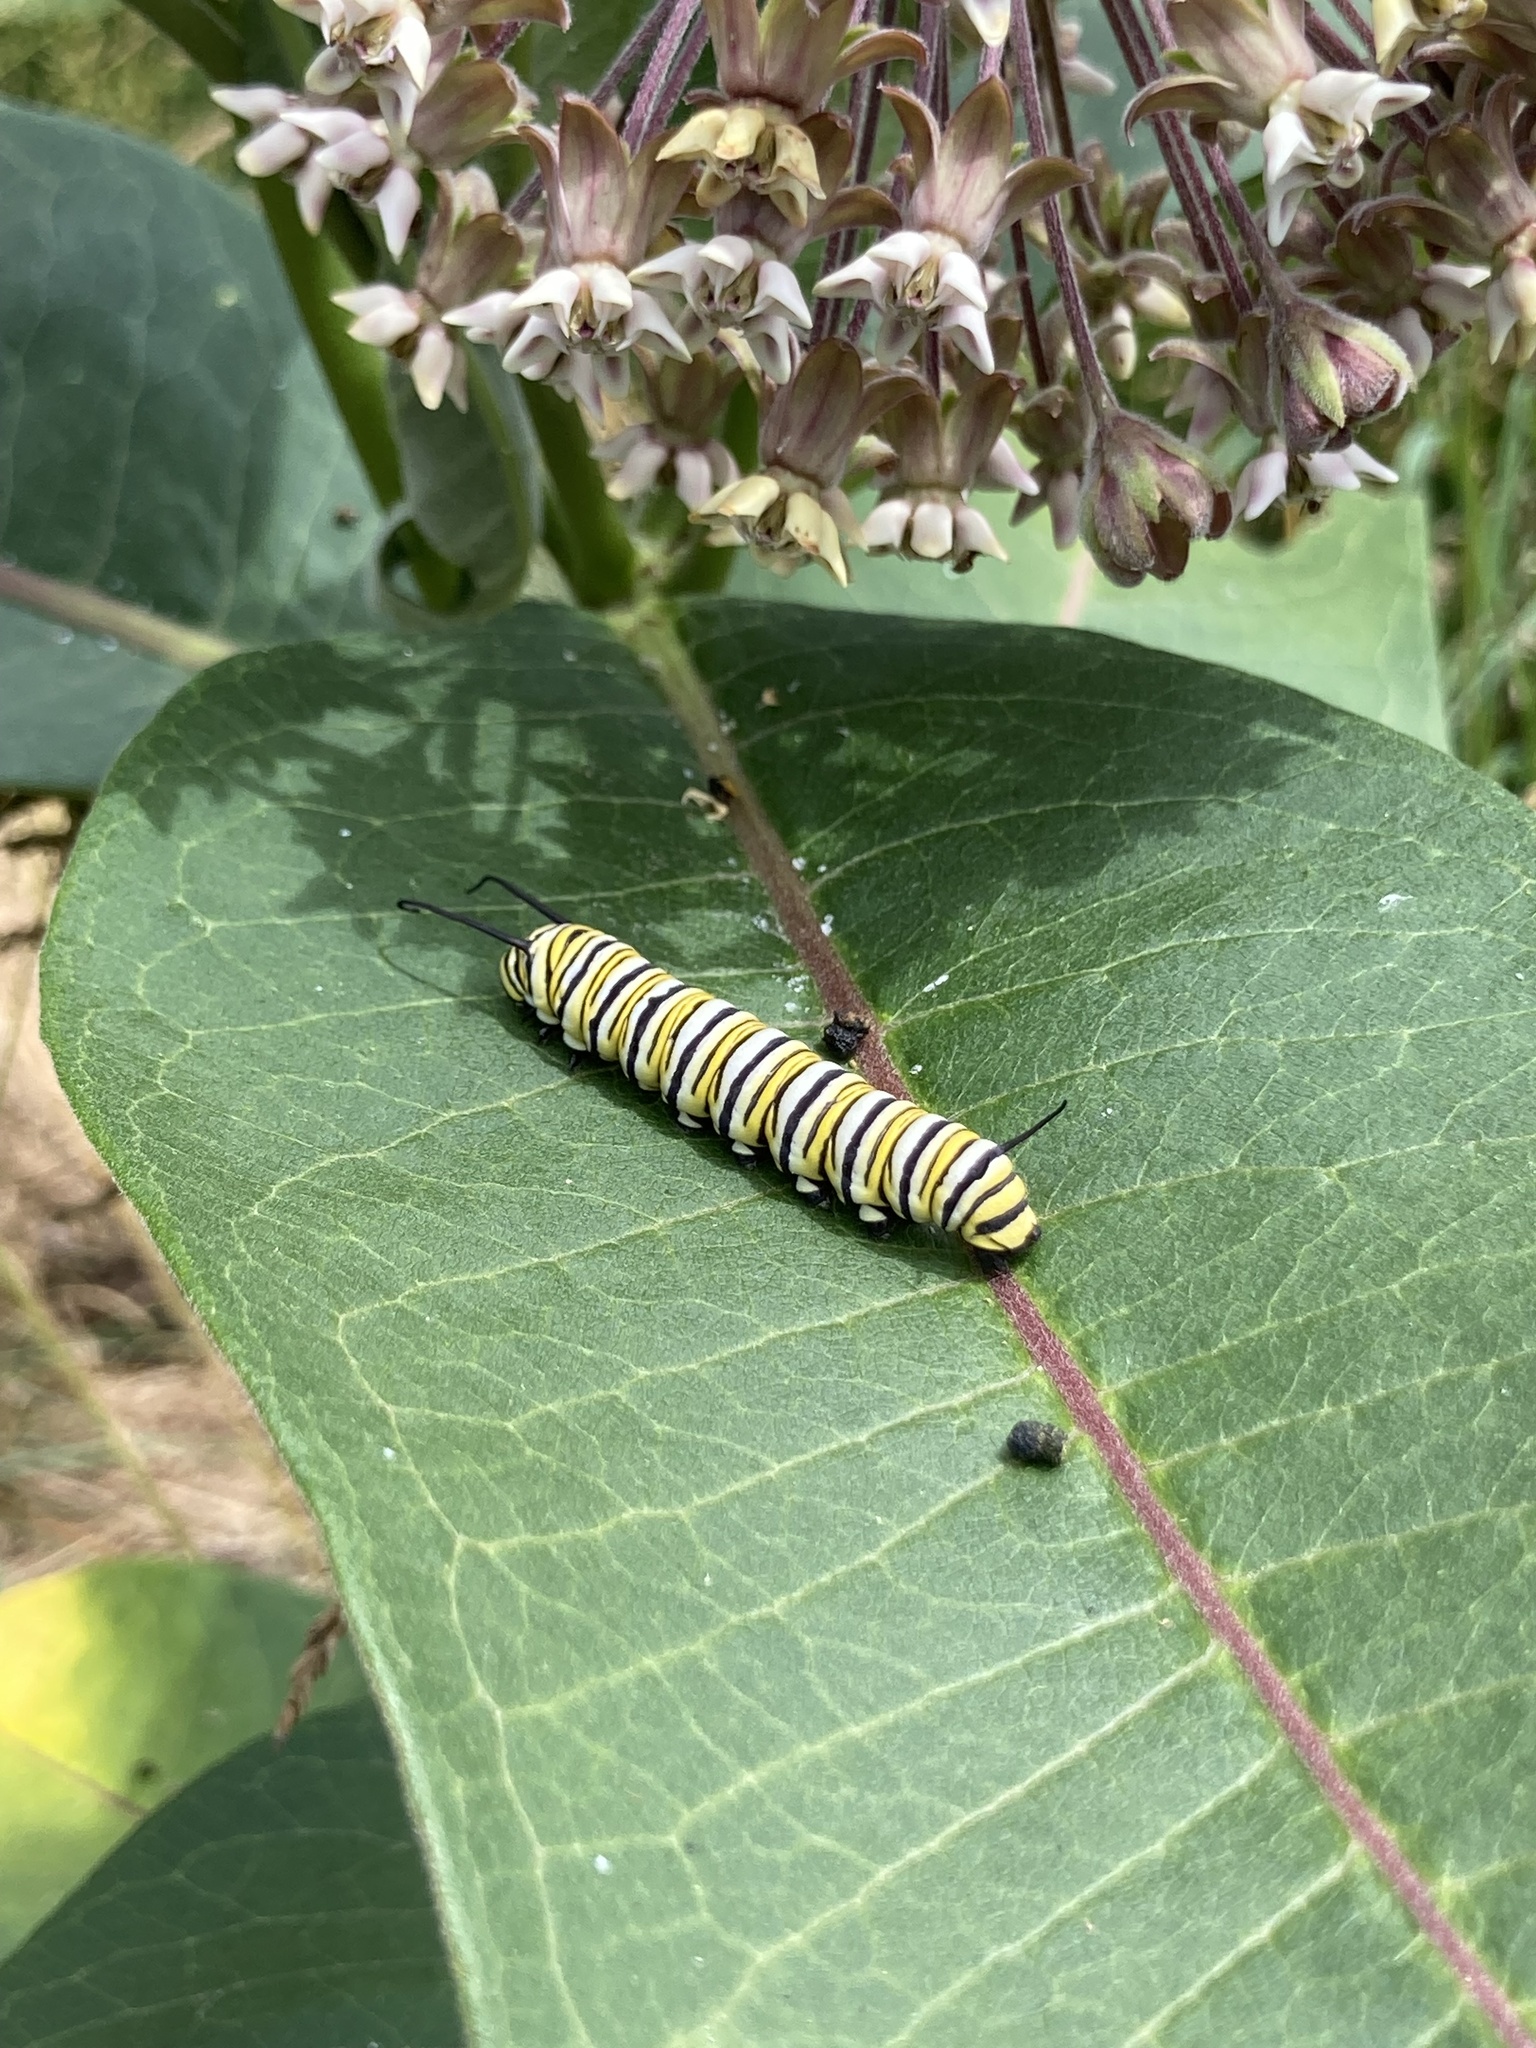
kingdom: Animalia
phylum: Arthropoda
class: Insecta
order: Lepidoptera
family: Nymphalidae
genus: Danaus
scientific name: Danaus plexippus
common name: Monarch
